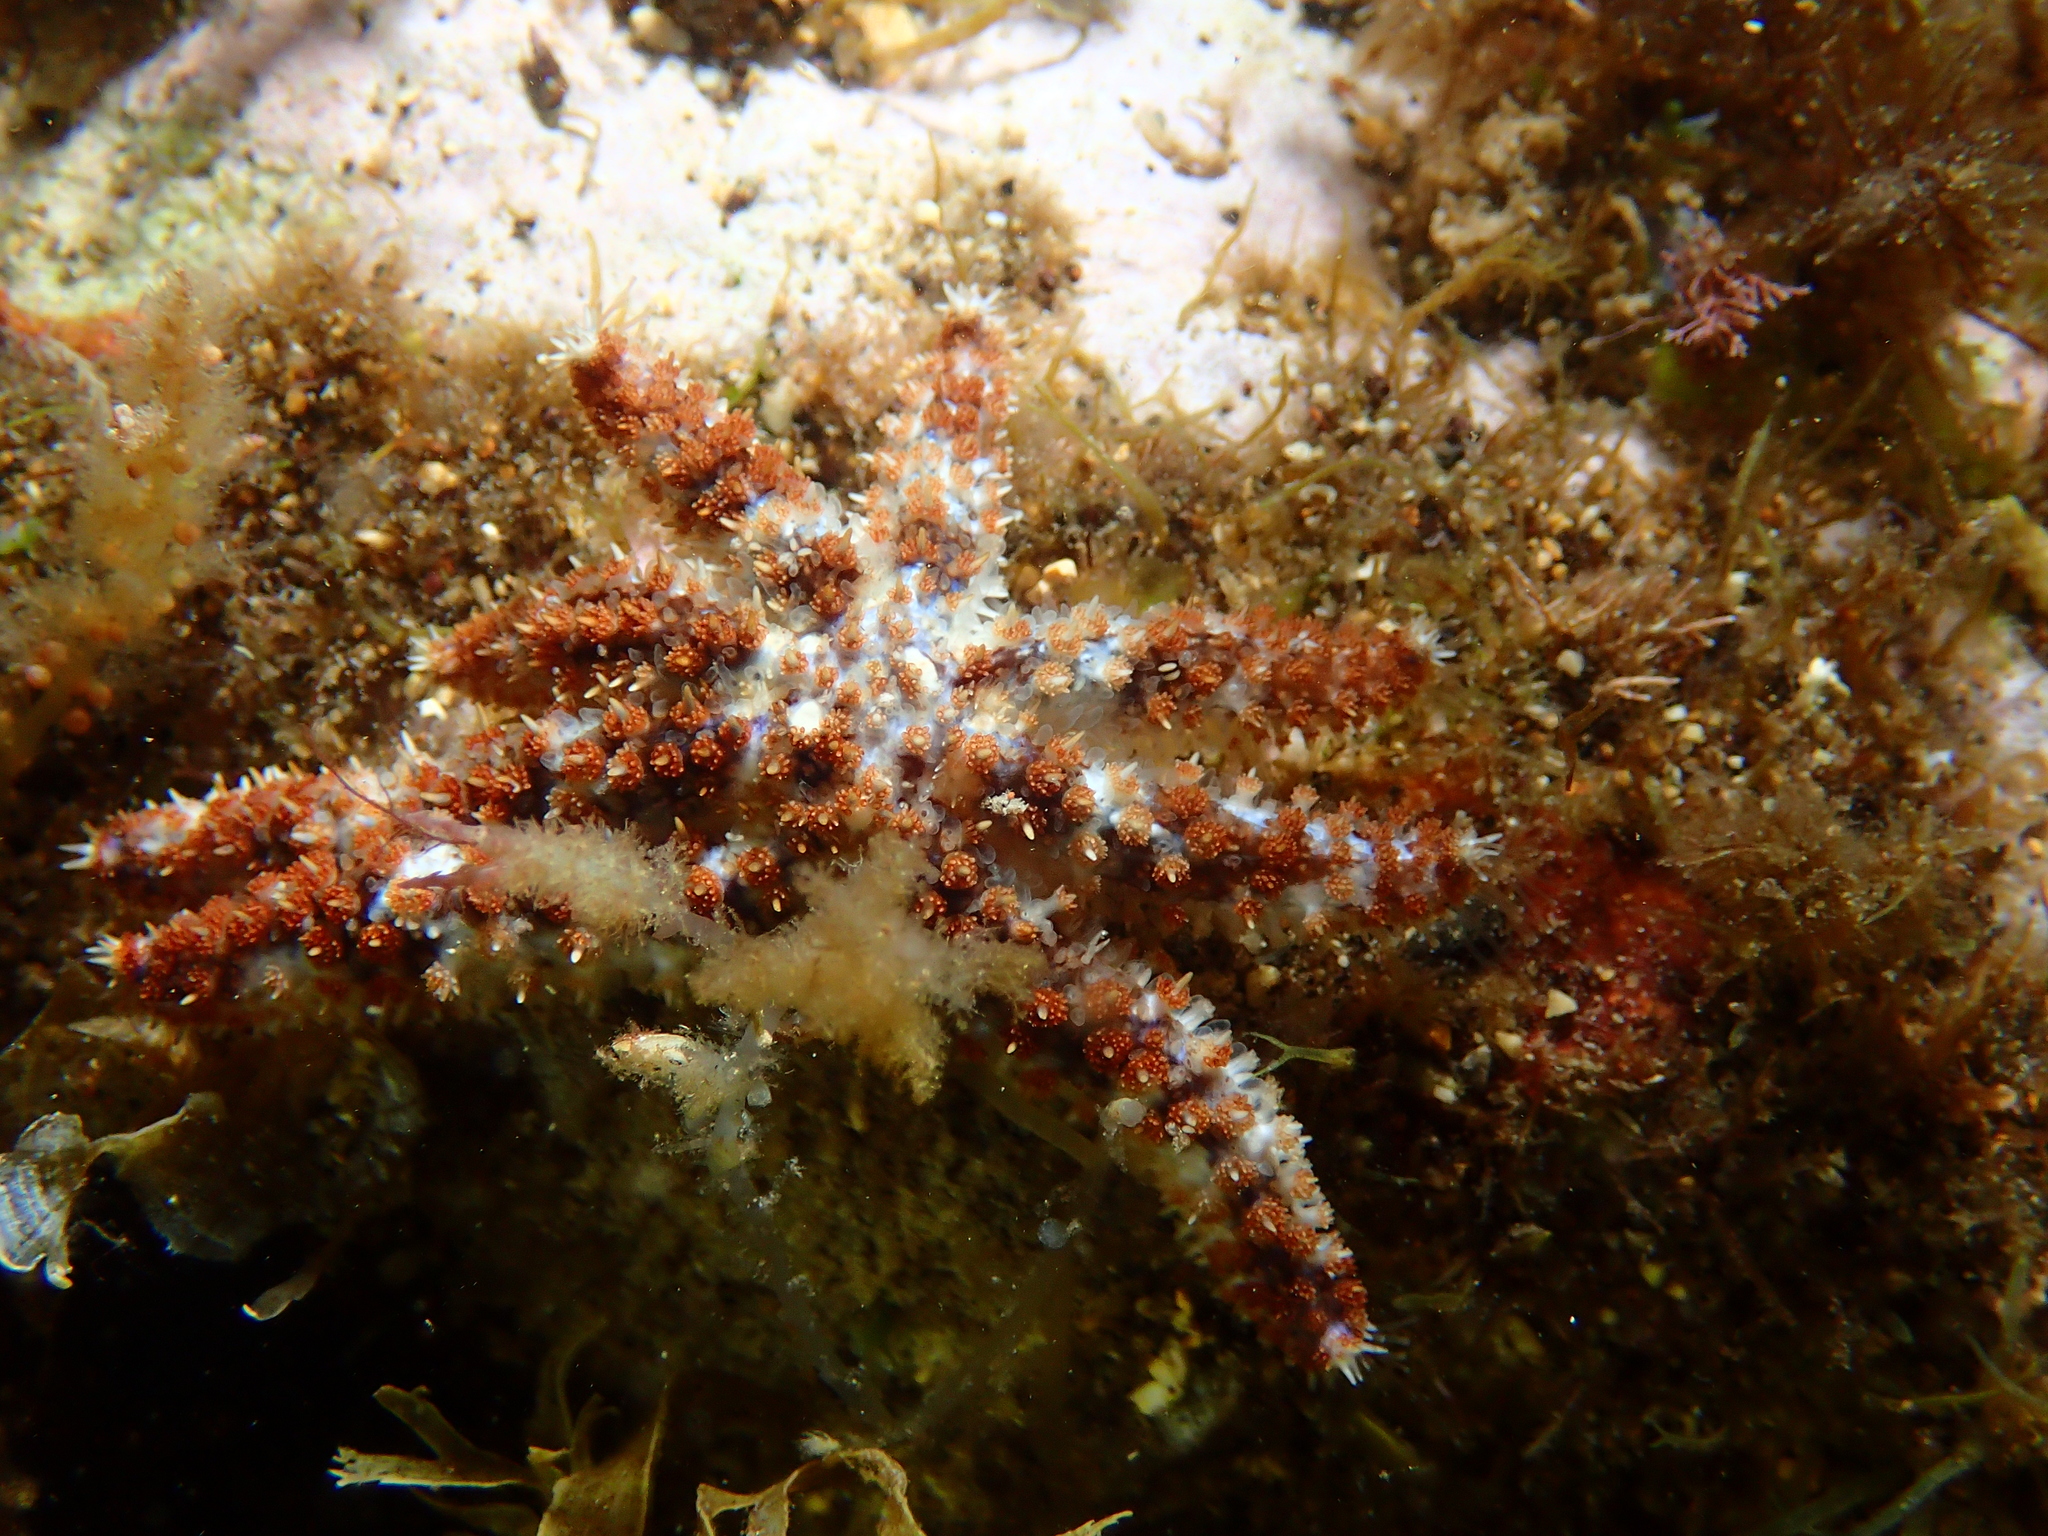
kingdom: Animalia
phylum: Echinodermata
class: Asteroidea
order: Forcipulatida
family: Asteriidae
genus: Coscinasterias
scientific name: Coscinasterias tenuispina
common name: Blue spiny starfish
